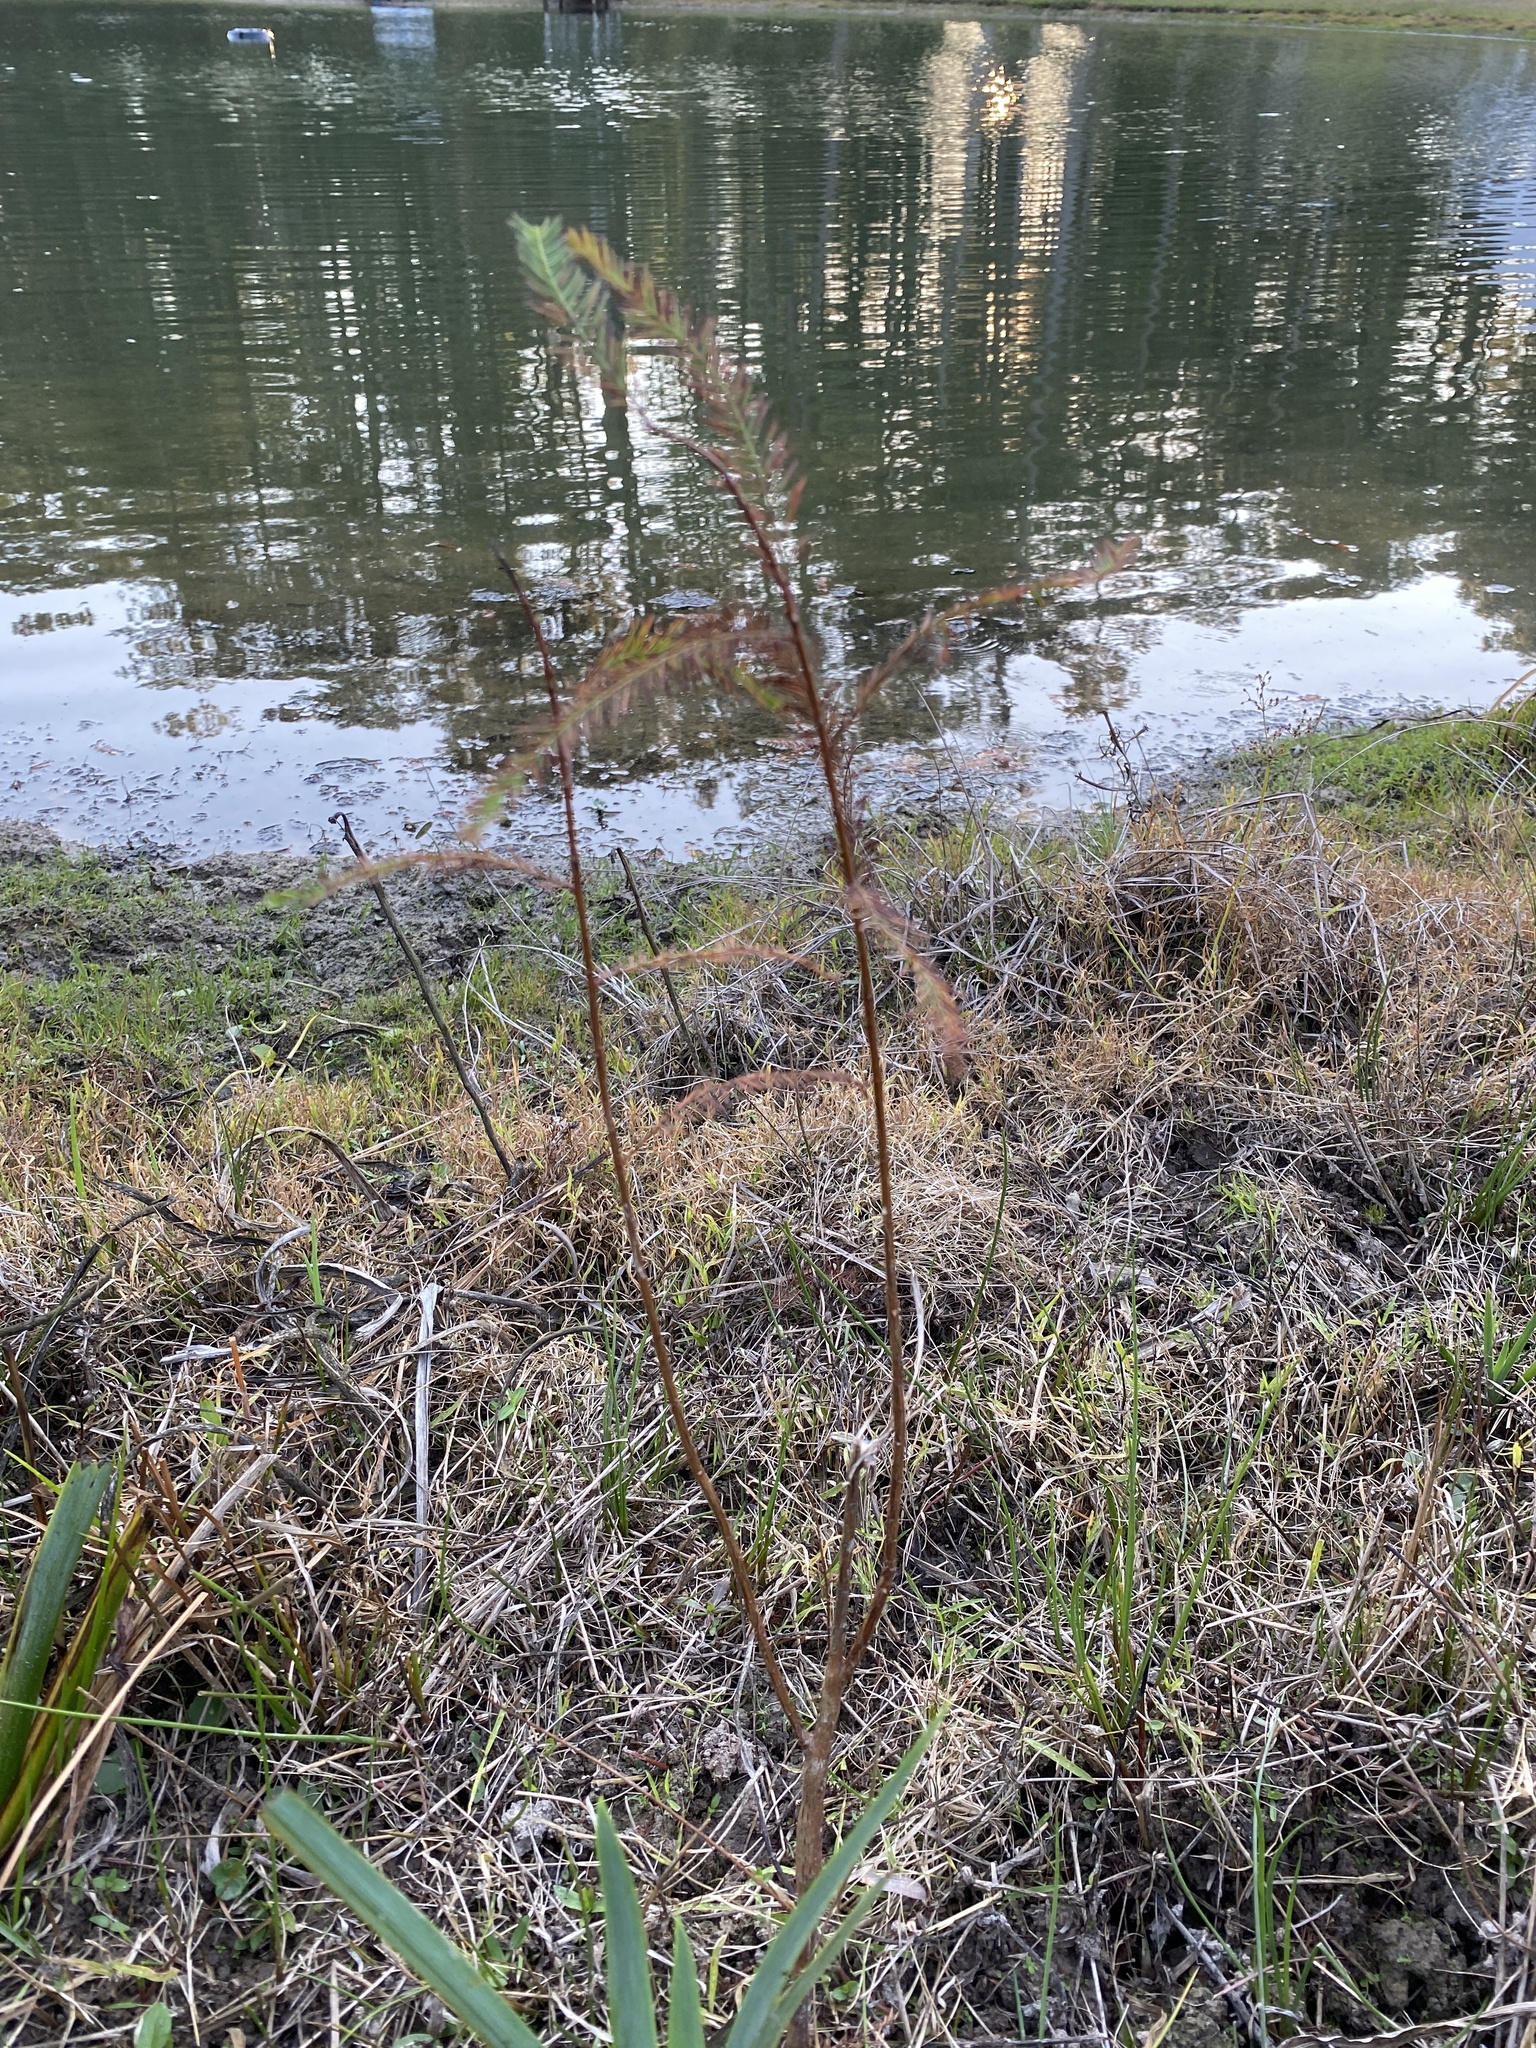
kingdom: Plantae
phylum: Tracheophyta
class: Pinopsida
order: Pinales
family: Cupressaceae
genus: Taxodium
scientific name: Taxodium distichum
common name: Bald cypress
